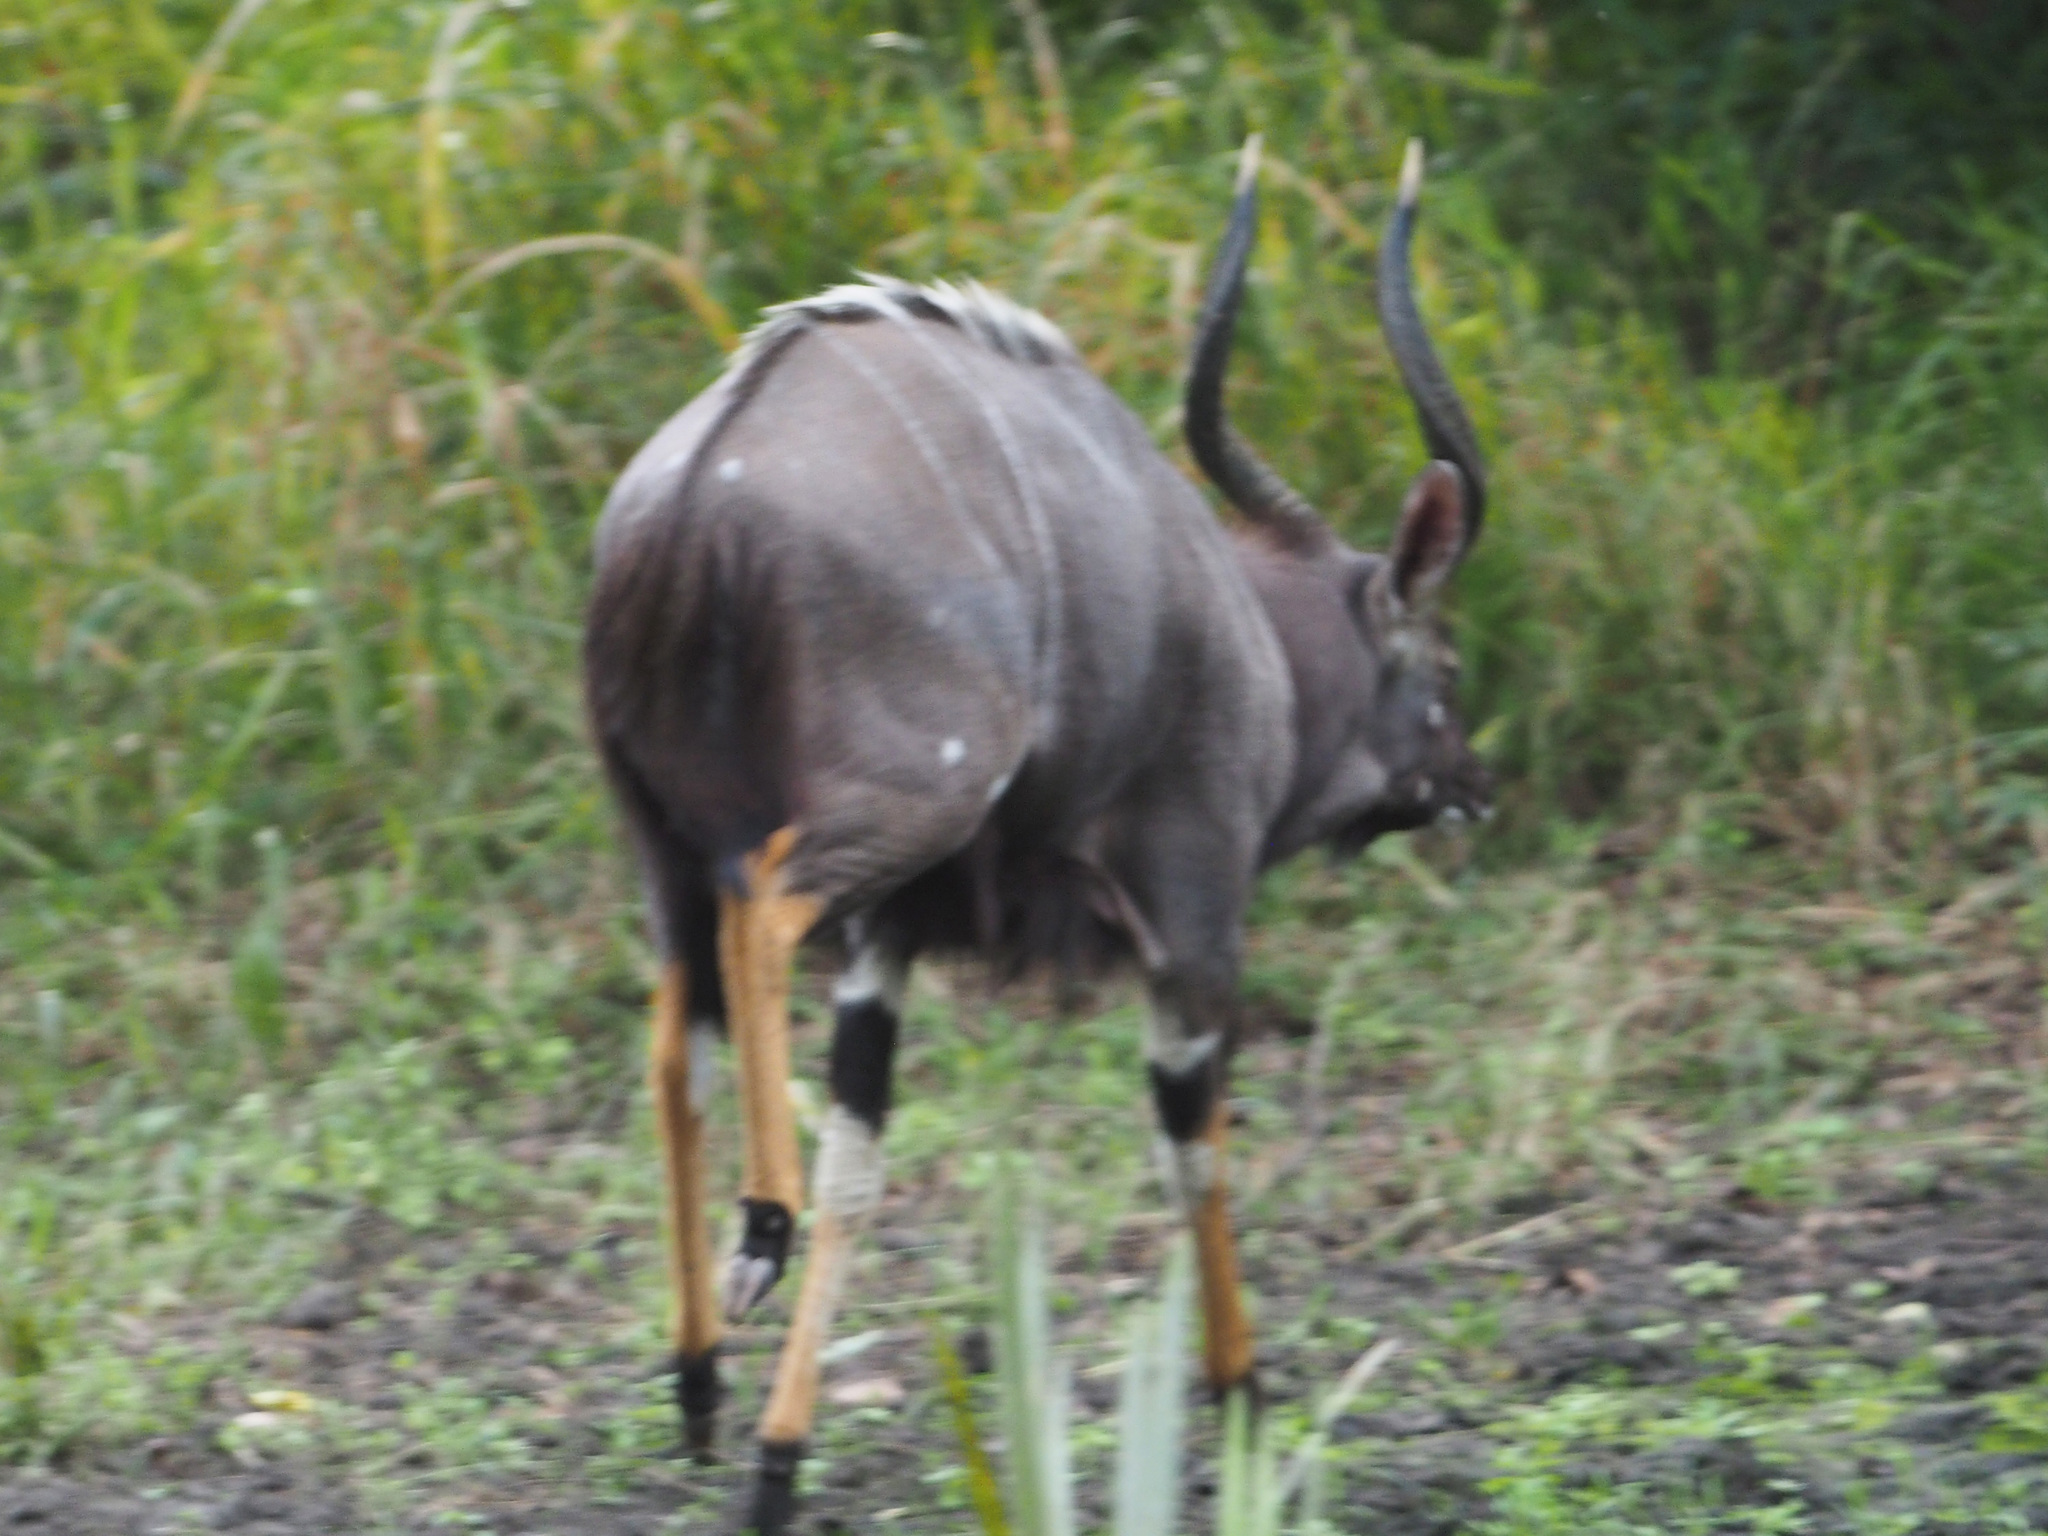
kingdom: Animalia
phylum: Chordata
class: Mammalia
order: Artiodactyla
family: Bovidae
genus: Tragelaphus
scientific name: Tragelaphus angasii
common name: Nyala
